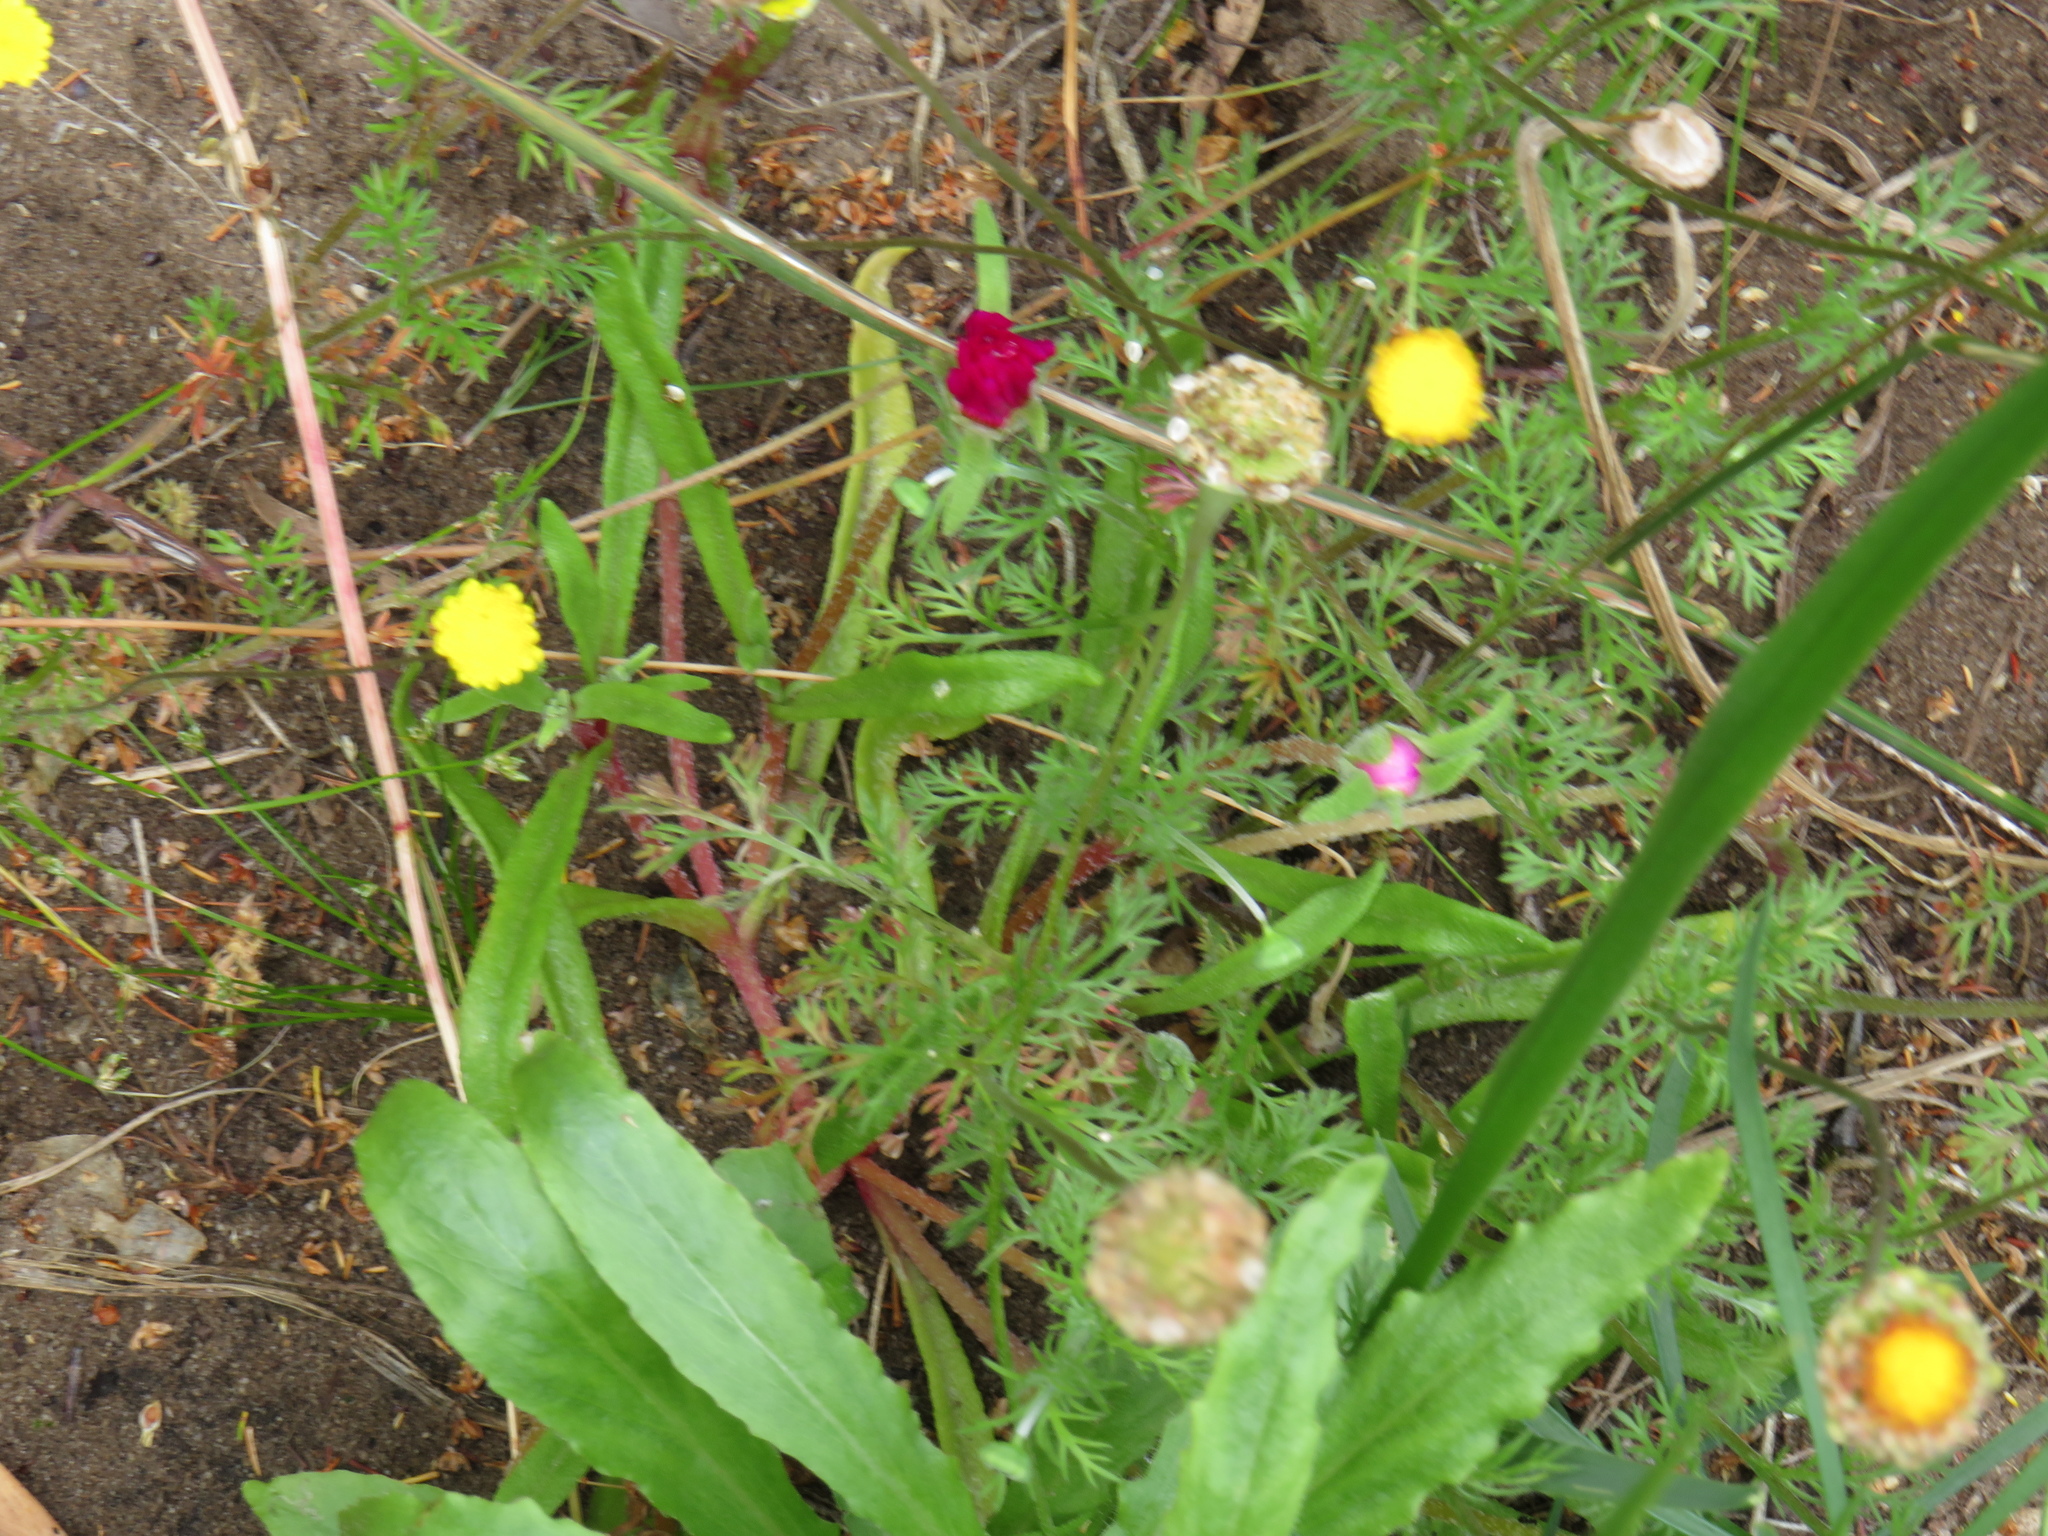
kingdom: Plantae
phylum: Tracheophyta
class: Magnoliopsida
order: Asterales
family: Asteraceae
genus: Cotula
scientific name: Cotula pruinosa
